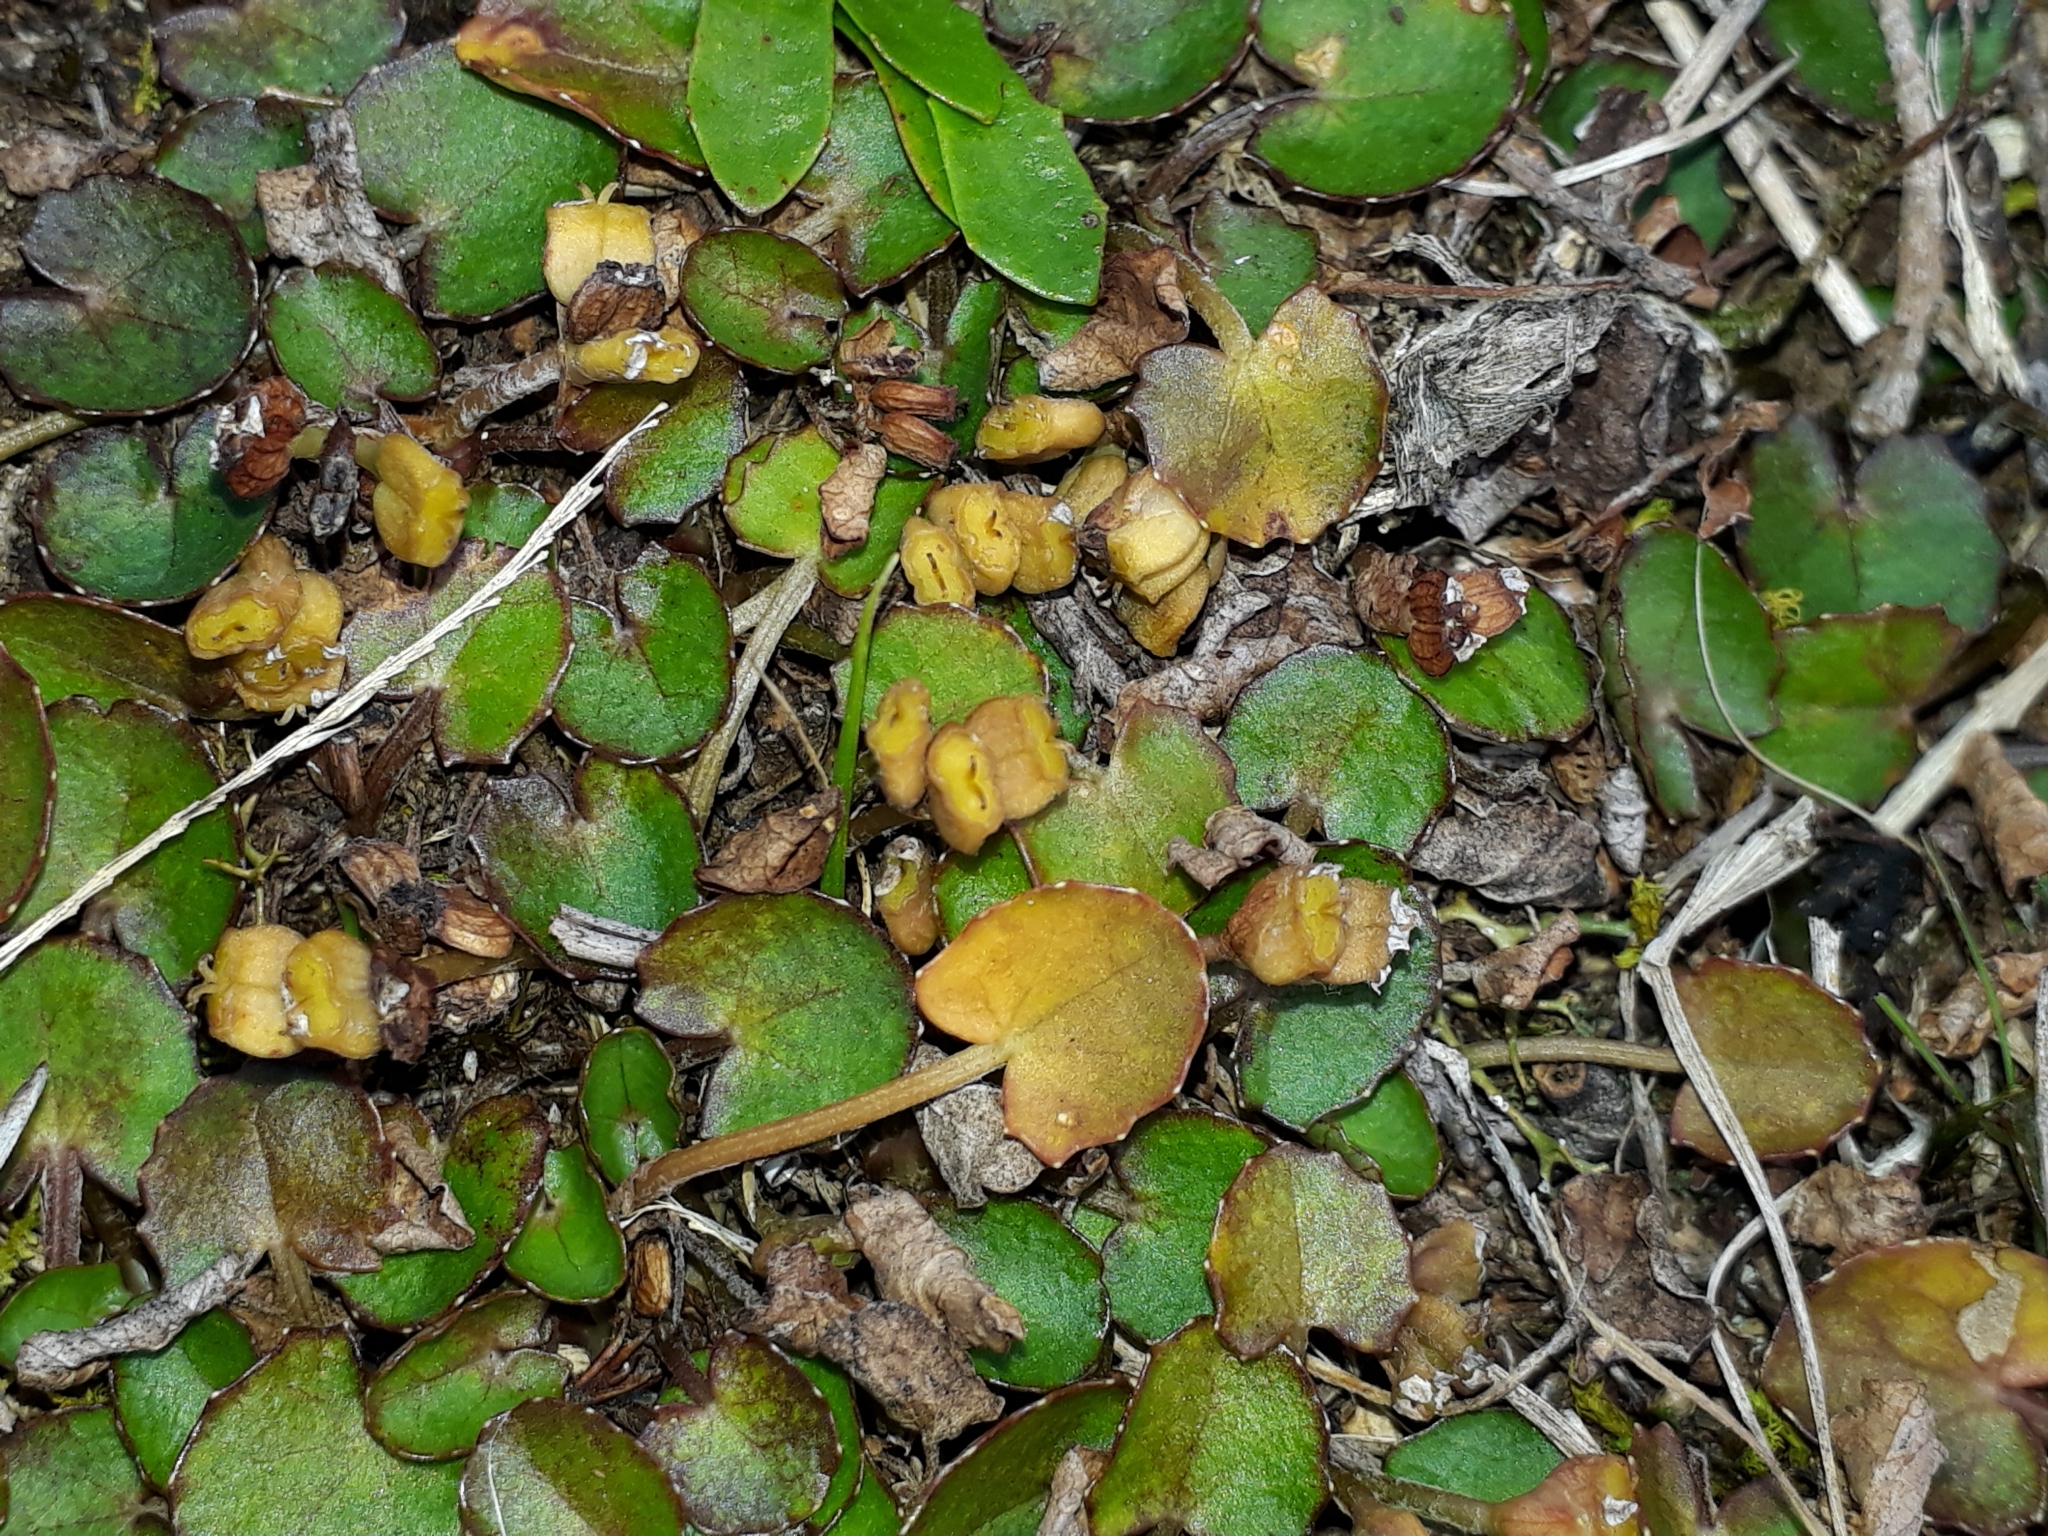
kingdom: Plantae
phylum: Tracheophyta
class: Magnoliopsida
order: Apiales
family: Apiaceae
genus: Centella
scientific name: Centella uniflora
